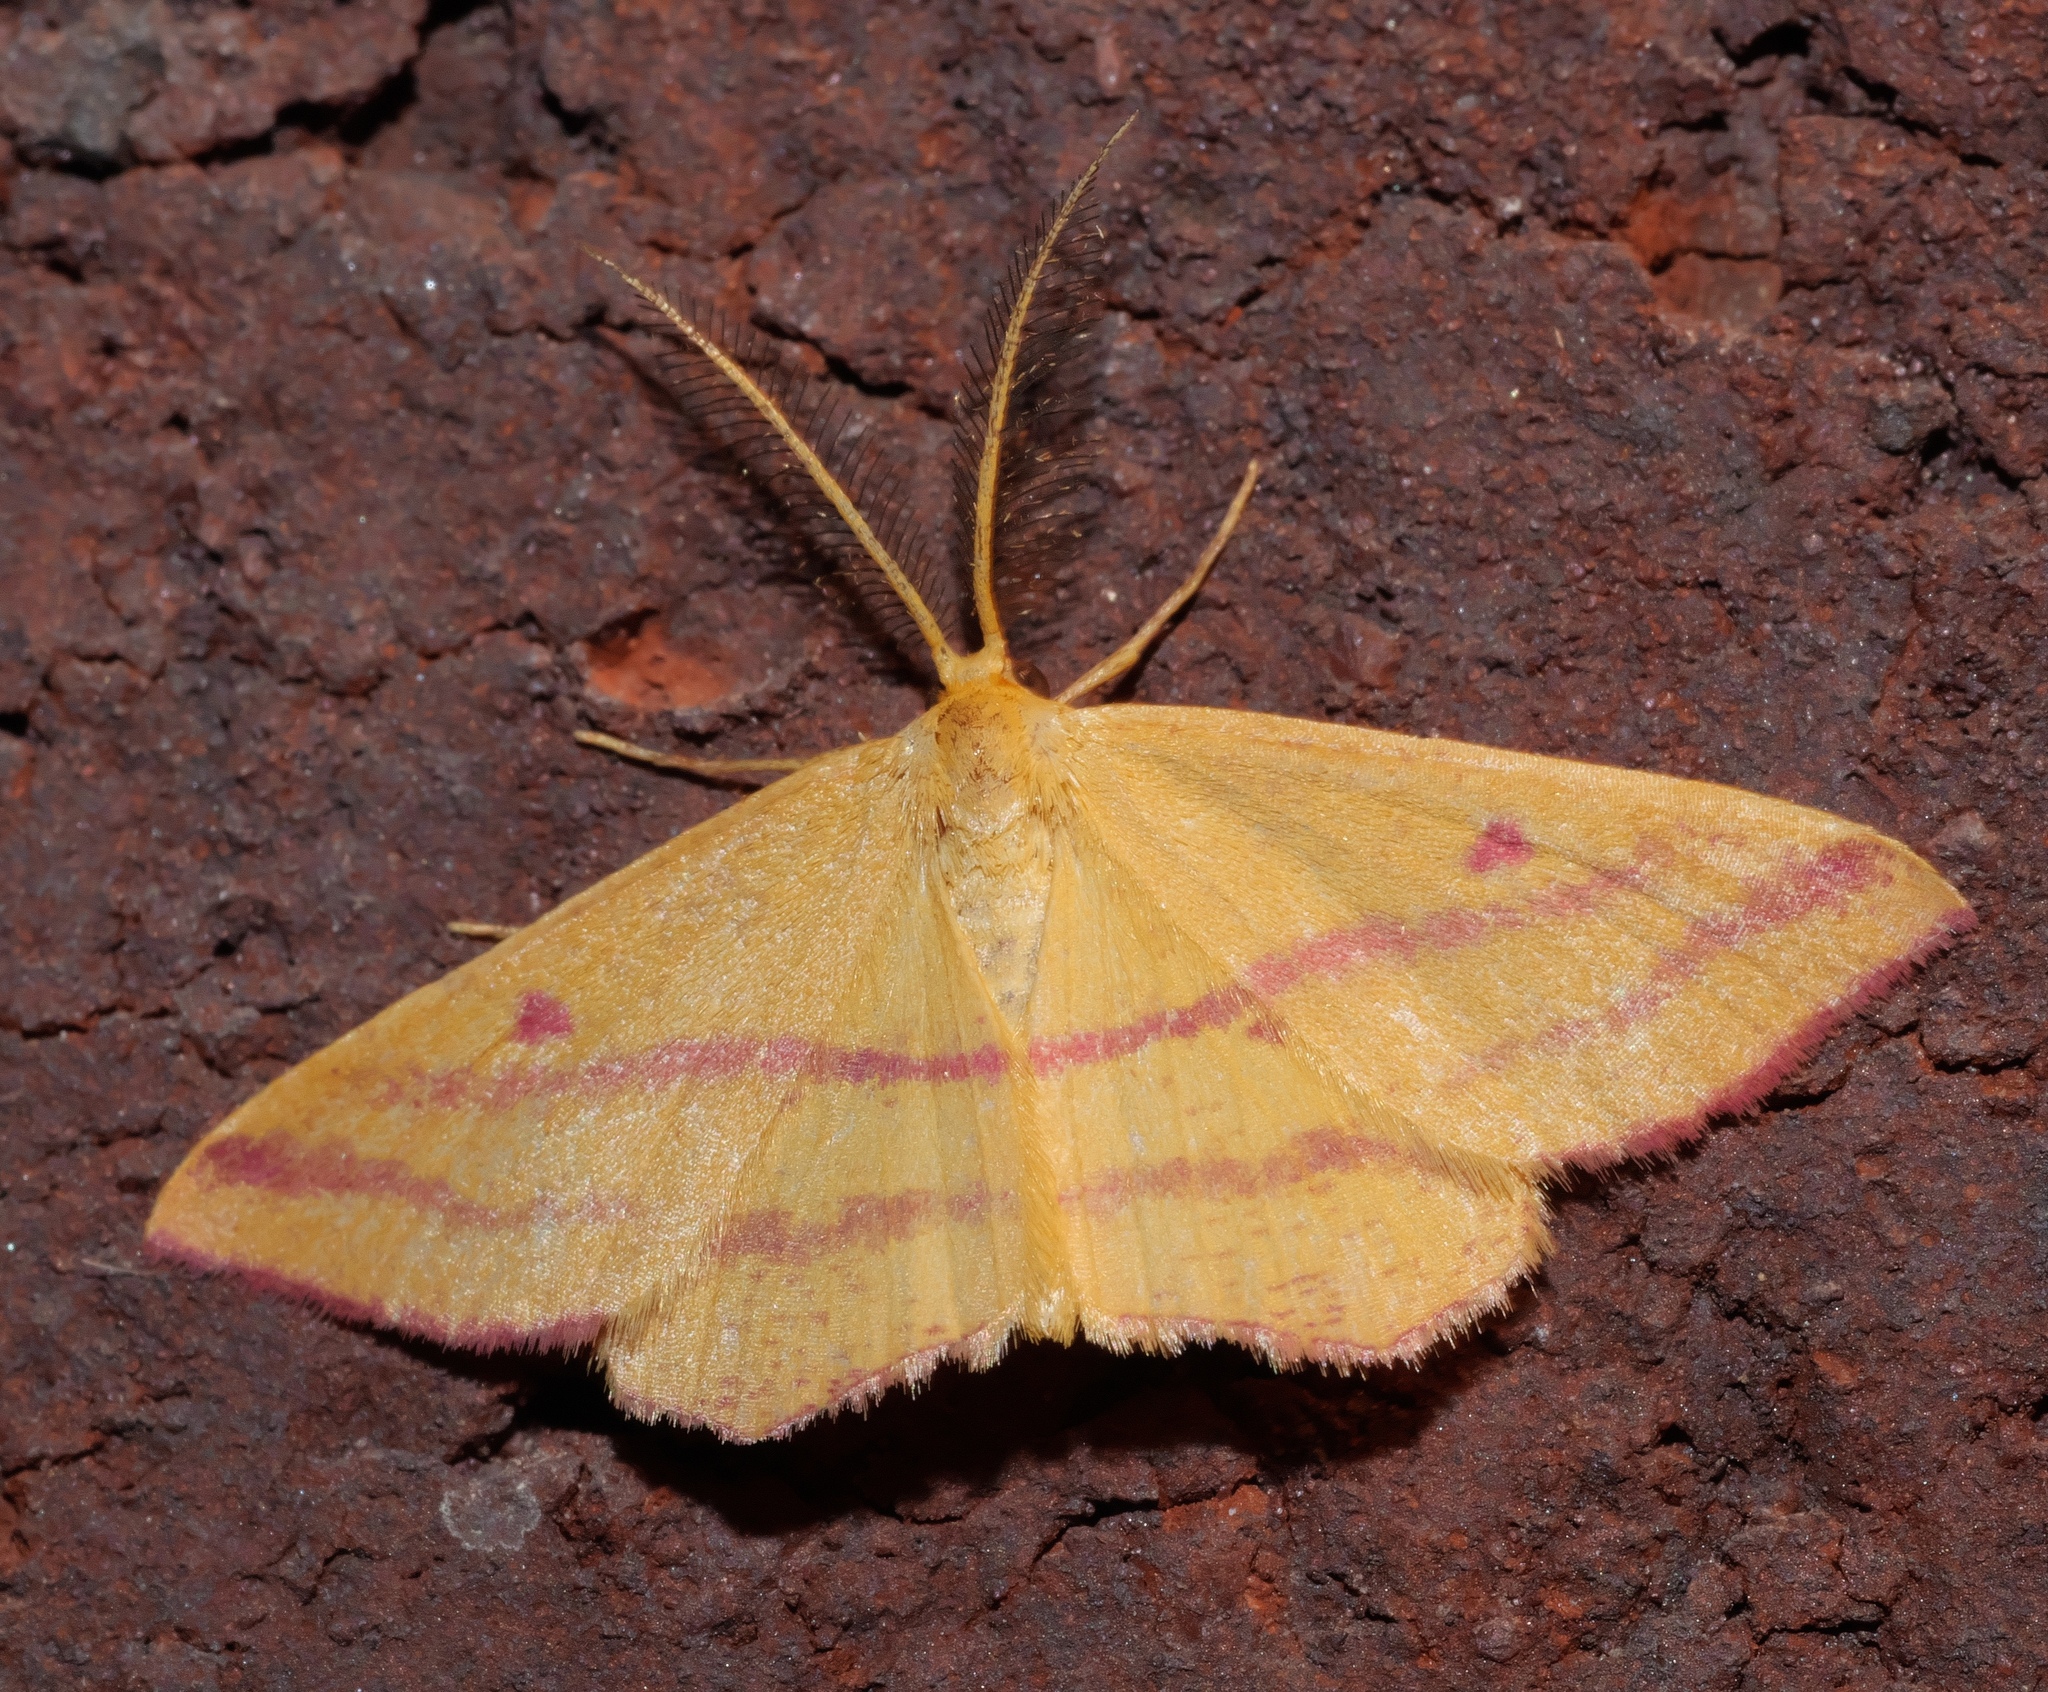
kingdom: Animalia
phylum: Arthropoda
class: Insecta
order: Lepidoptera
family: Geometridae
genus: Haematopis
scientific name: Haematopis grataria
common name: Chickweed geometer
